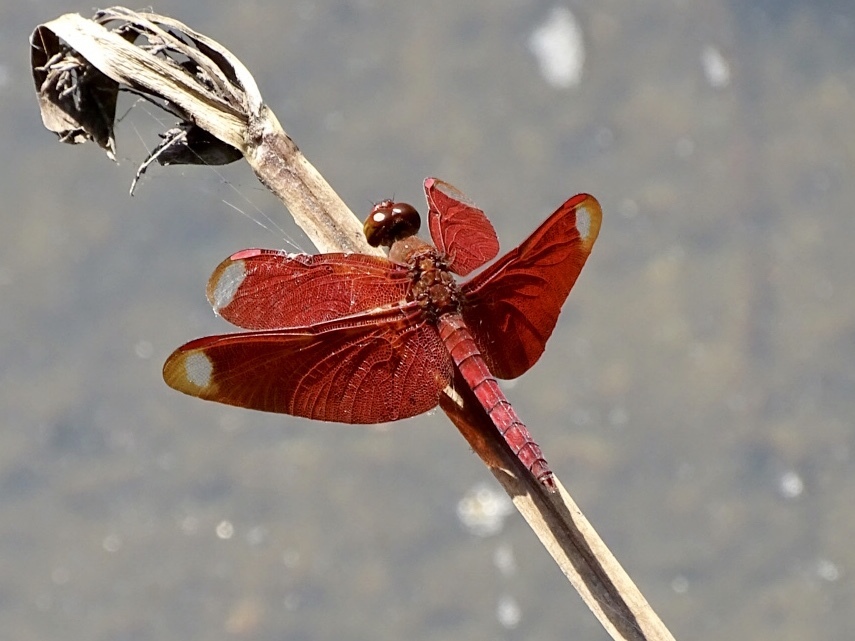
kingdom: Animalia
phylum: Arthropoda
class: Insecta
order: Odonata
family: Libellulidae
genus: Neurothemis
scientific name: Neurothemis fulvia
